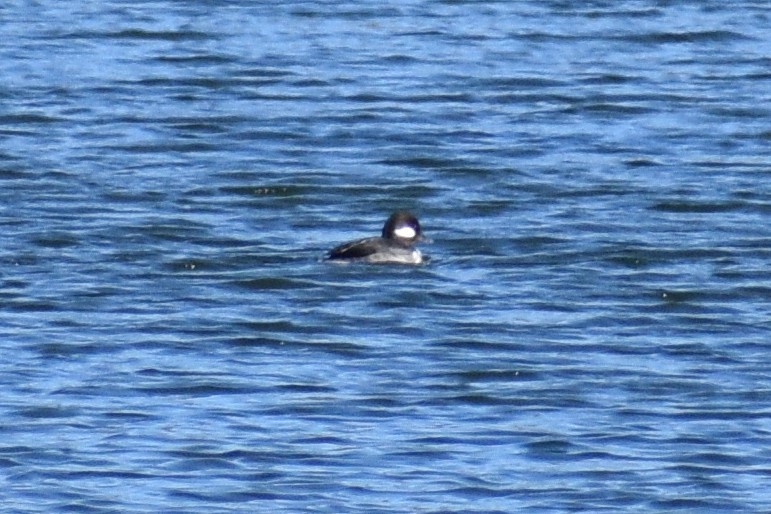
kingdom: Animalia
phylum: Chordata
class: Aves
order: Anseriformes
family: Anatidae
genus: Bucephala
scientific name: Bucephala albeola
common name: Bufflehead
